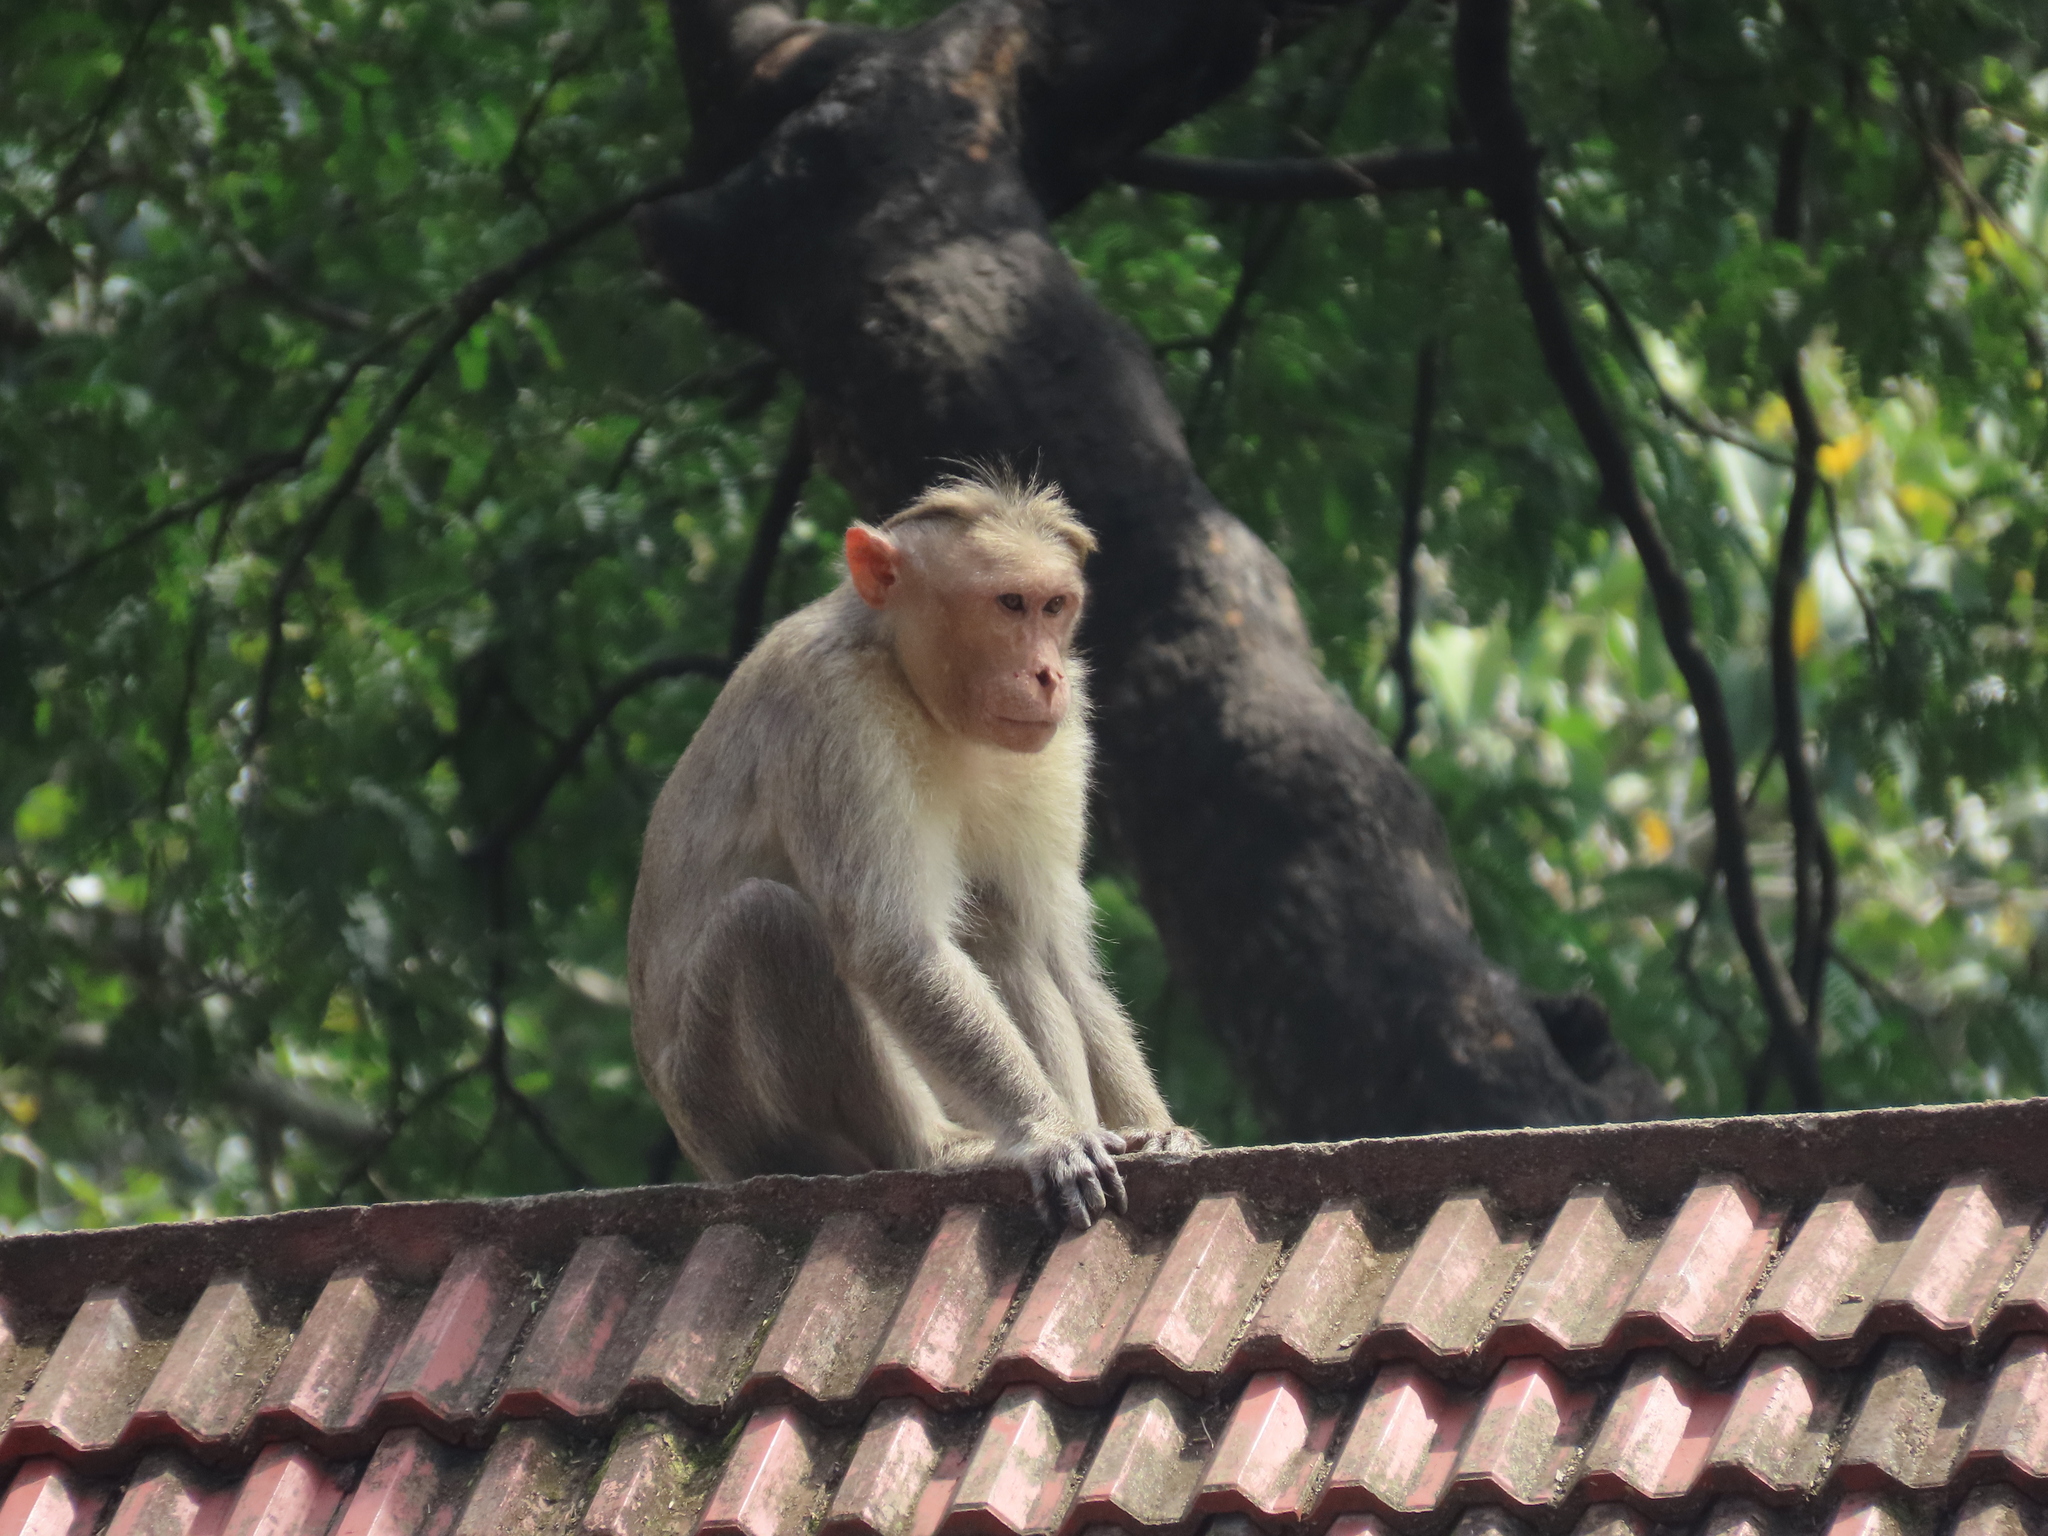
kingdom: Animalia
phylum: Chordata
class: Mammalia
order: Primates
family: Cercopithecidae
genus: Macaca
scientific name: Macaca radiata
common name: Bonnet macaque
